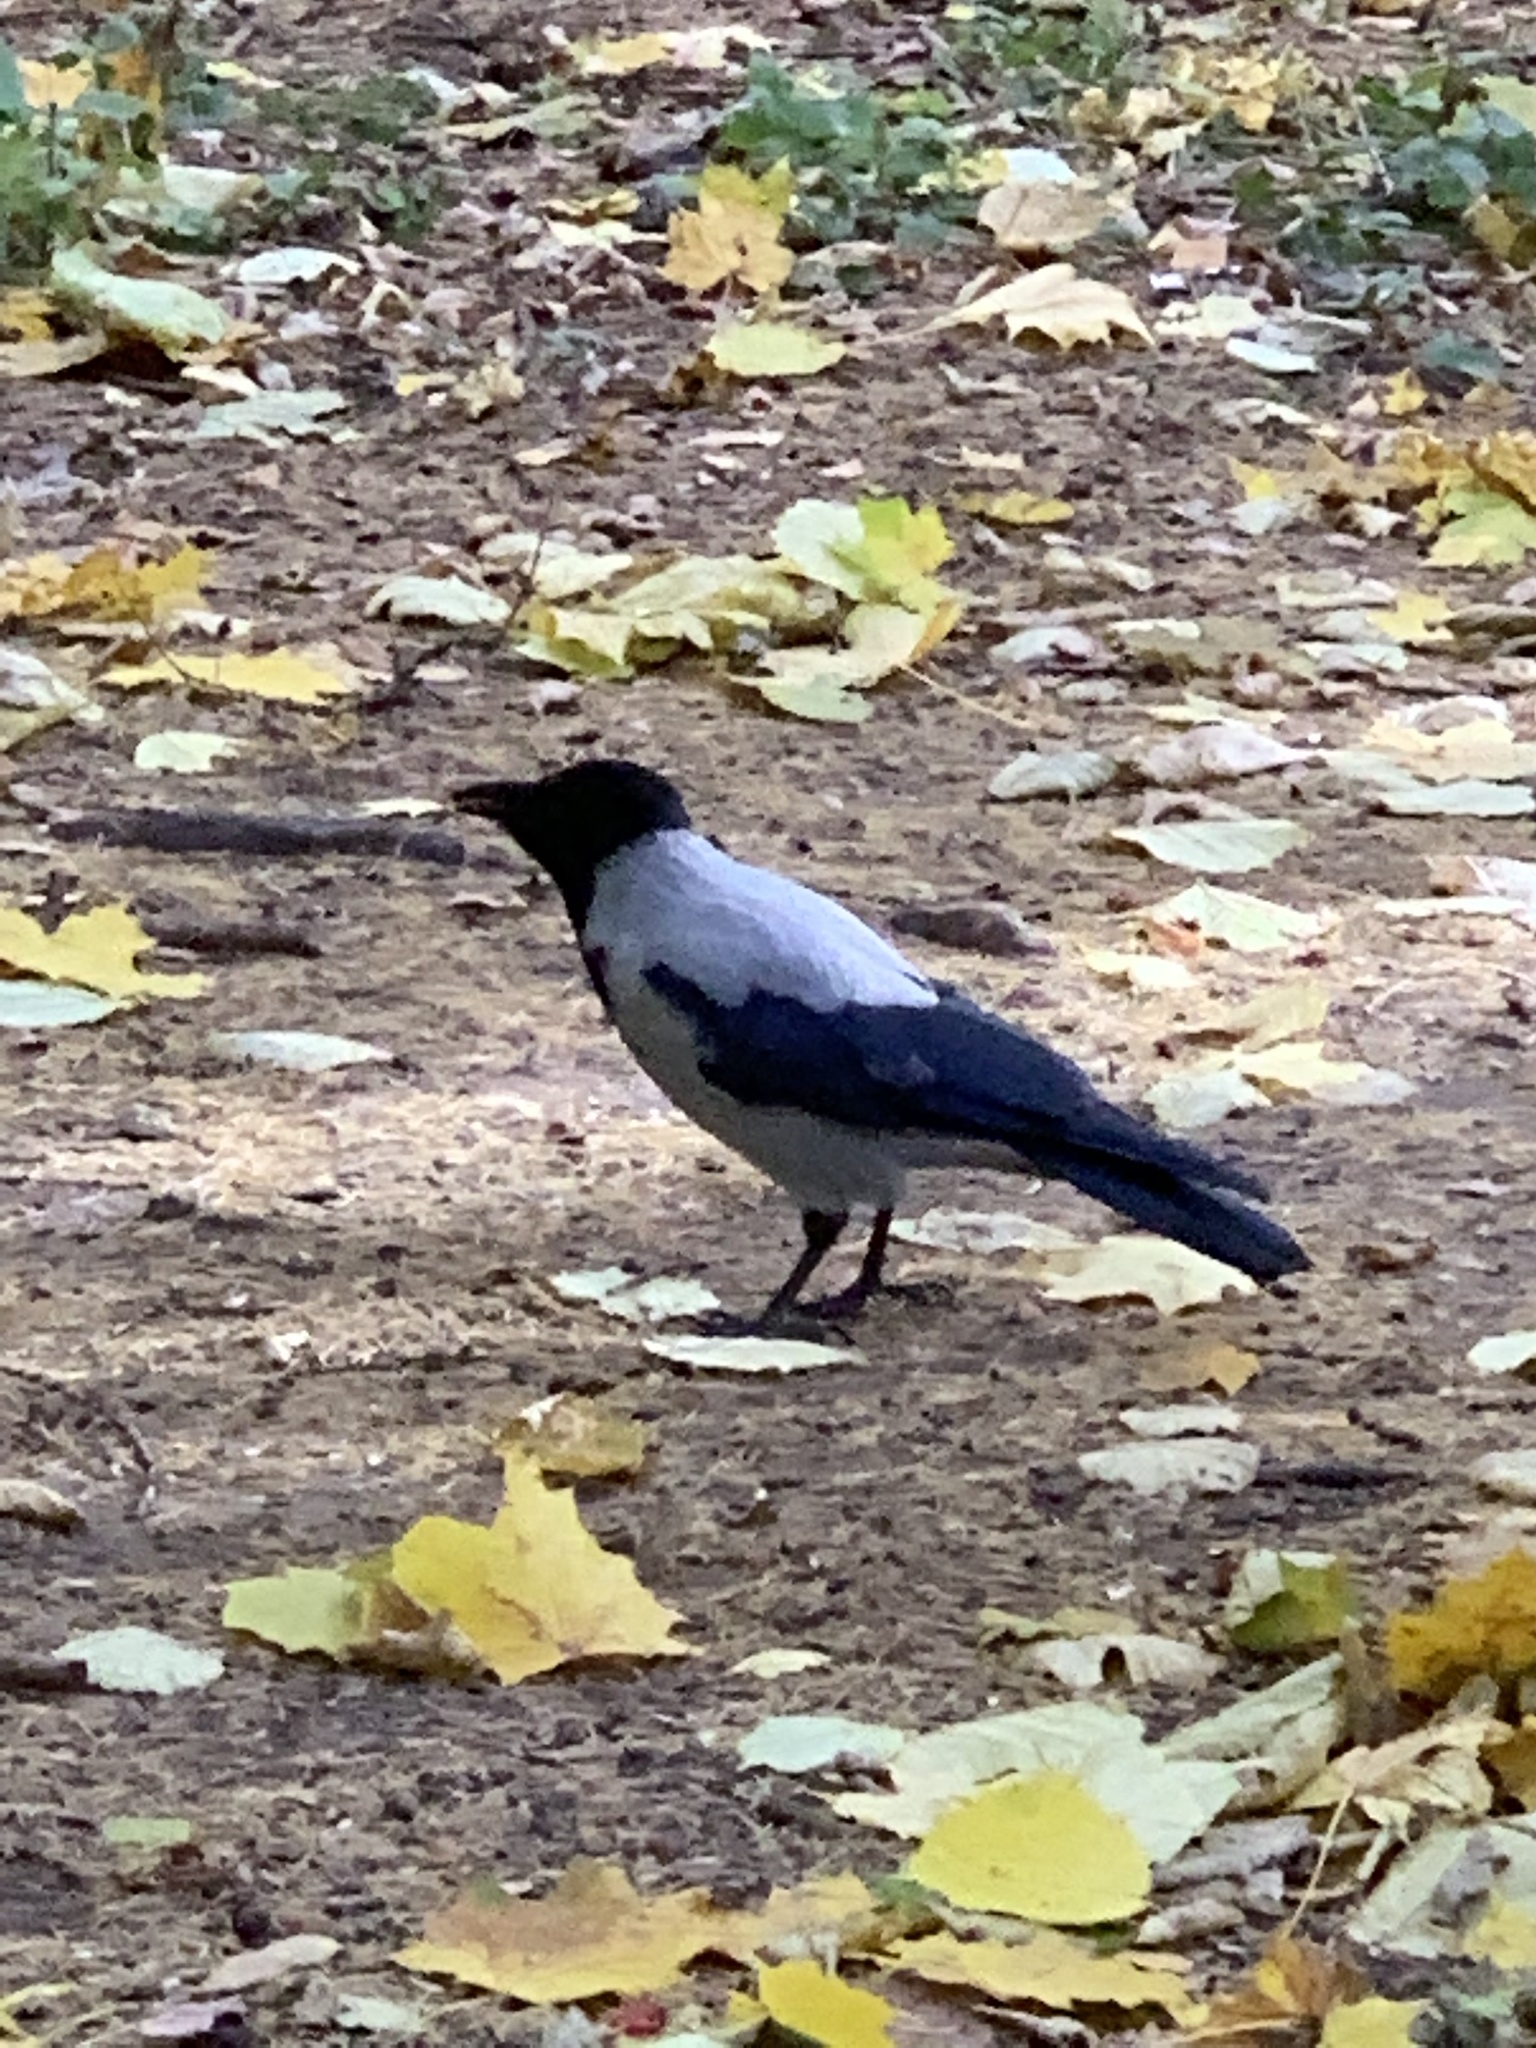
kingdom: Animalia
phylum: Chordata
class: Aves
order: Passeriformes
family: Corvidae
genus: Corvus
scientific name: Corvus cornix
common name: Hooded crow
